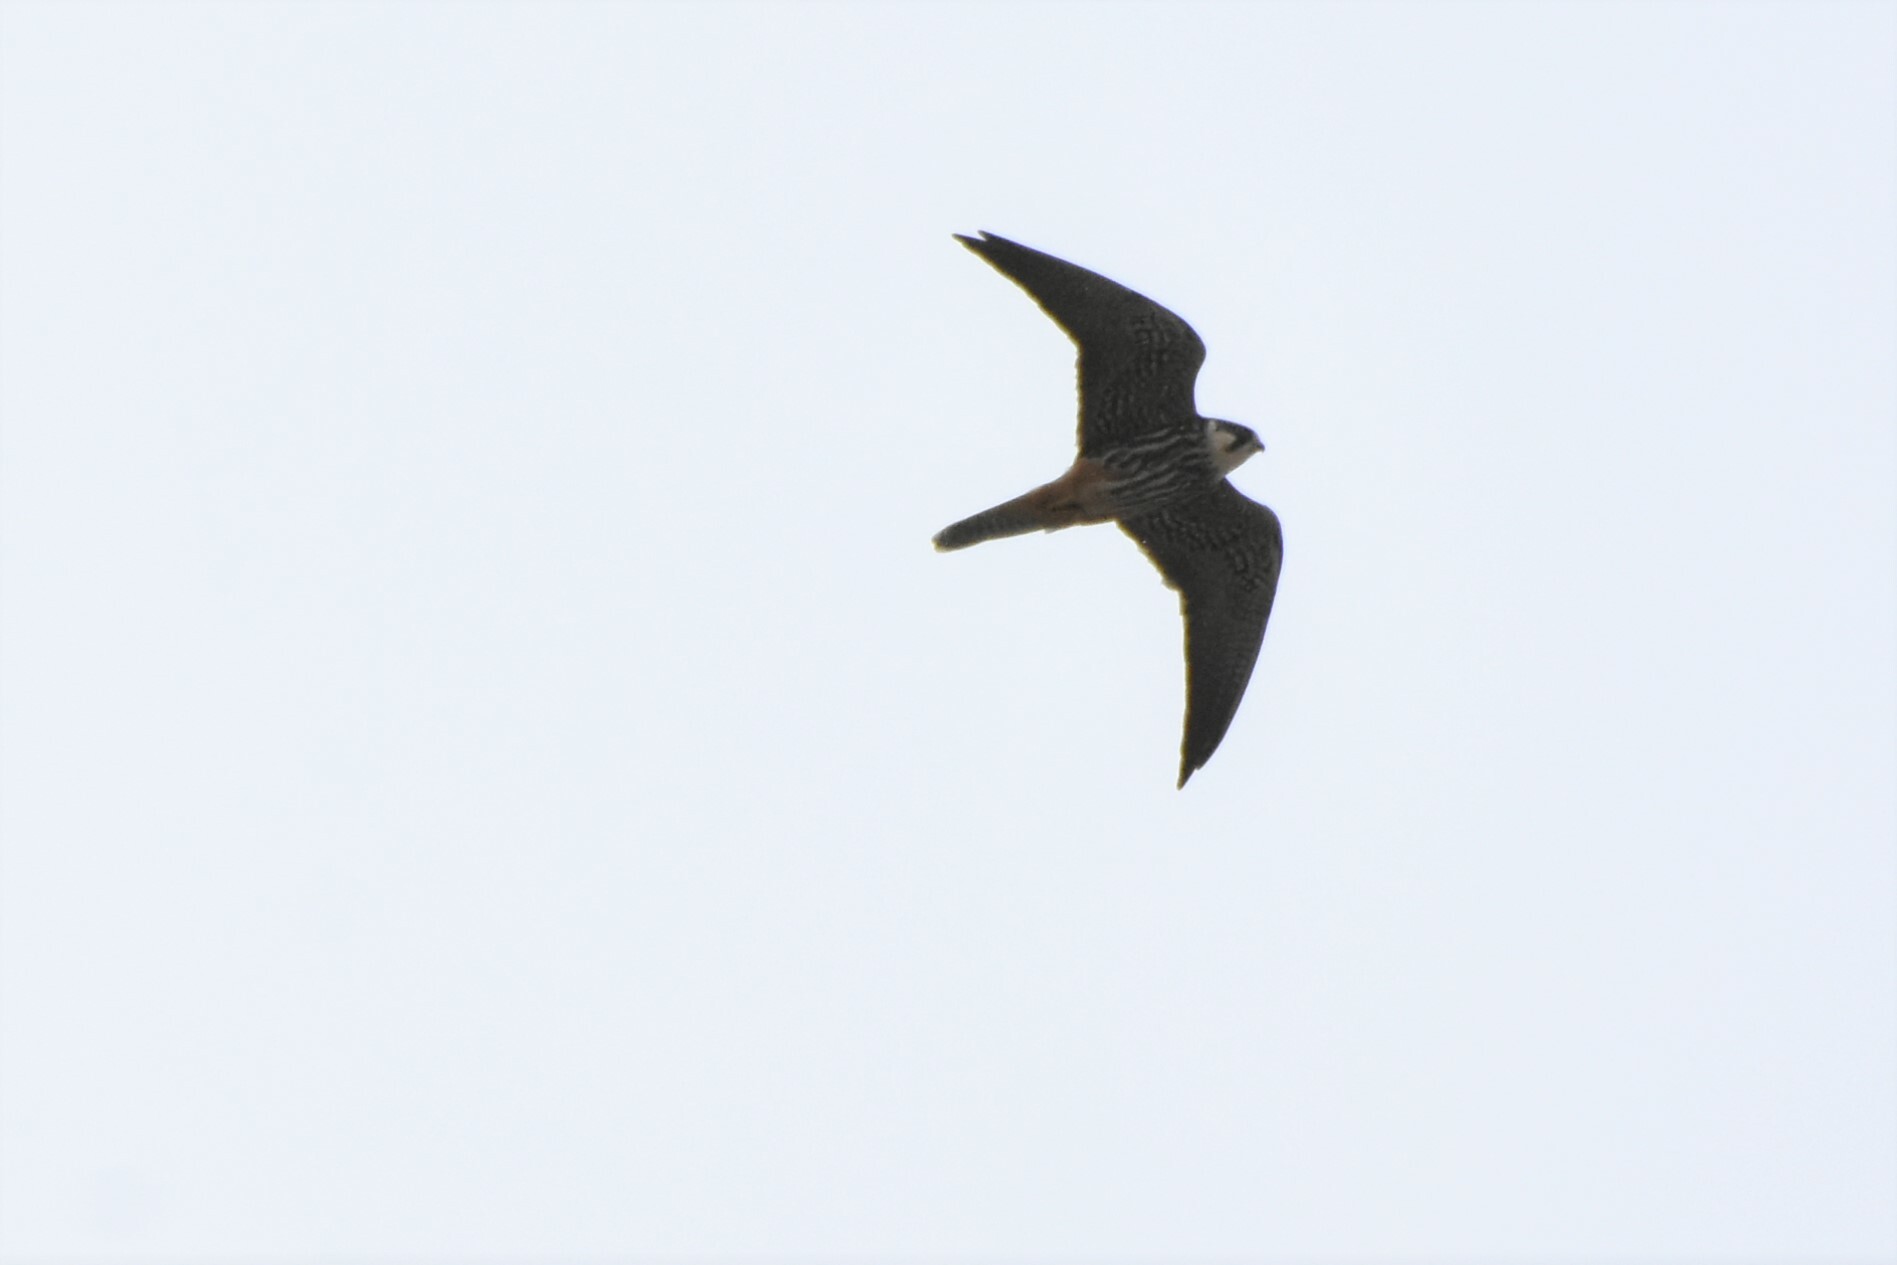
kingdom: Animalia
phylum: Chordata
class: Aves
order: Falconiformes
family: Falconidae
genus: Falco
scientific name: Falco subbuteo
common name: Eurasian hobby
